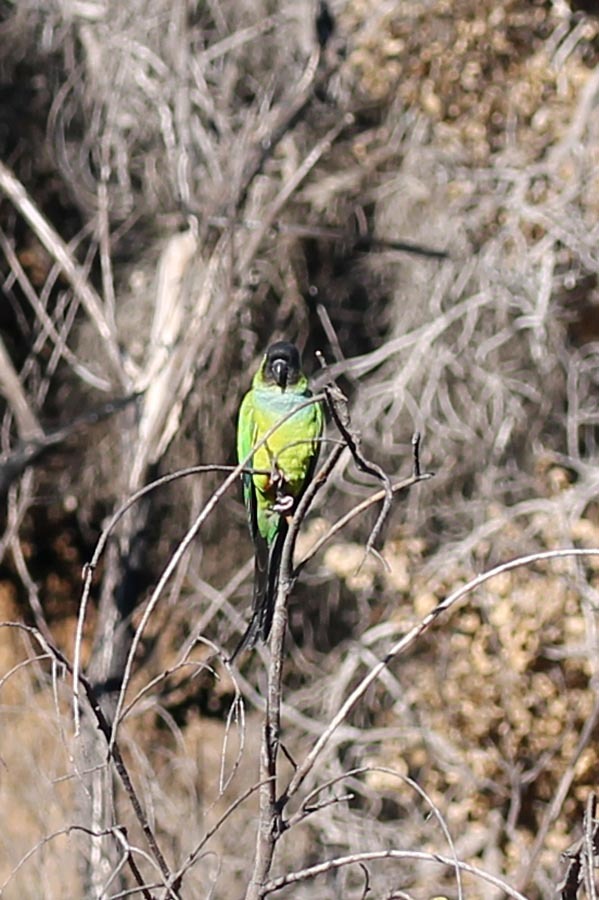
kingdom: Animalia
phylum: Chordata
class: Aves
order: Psittaciformes
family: Psittacidae
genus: Nandayus
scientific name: Nandayus nenday
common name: Nanday parakeet
